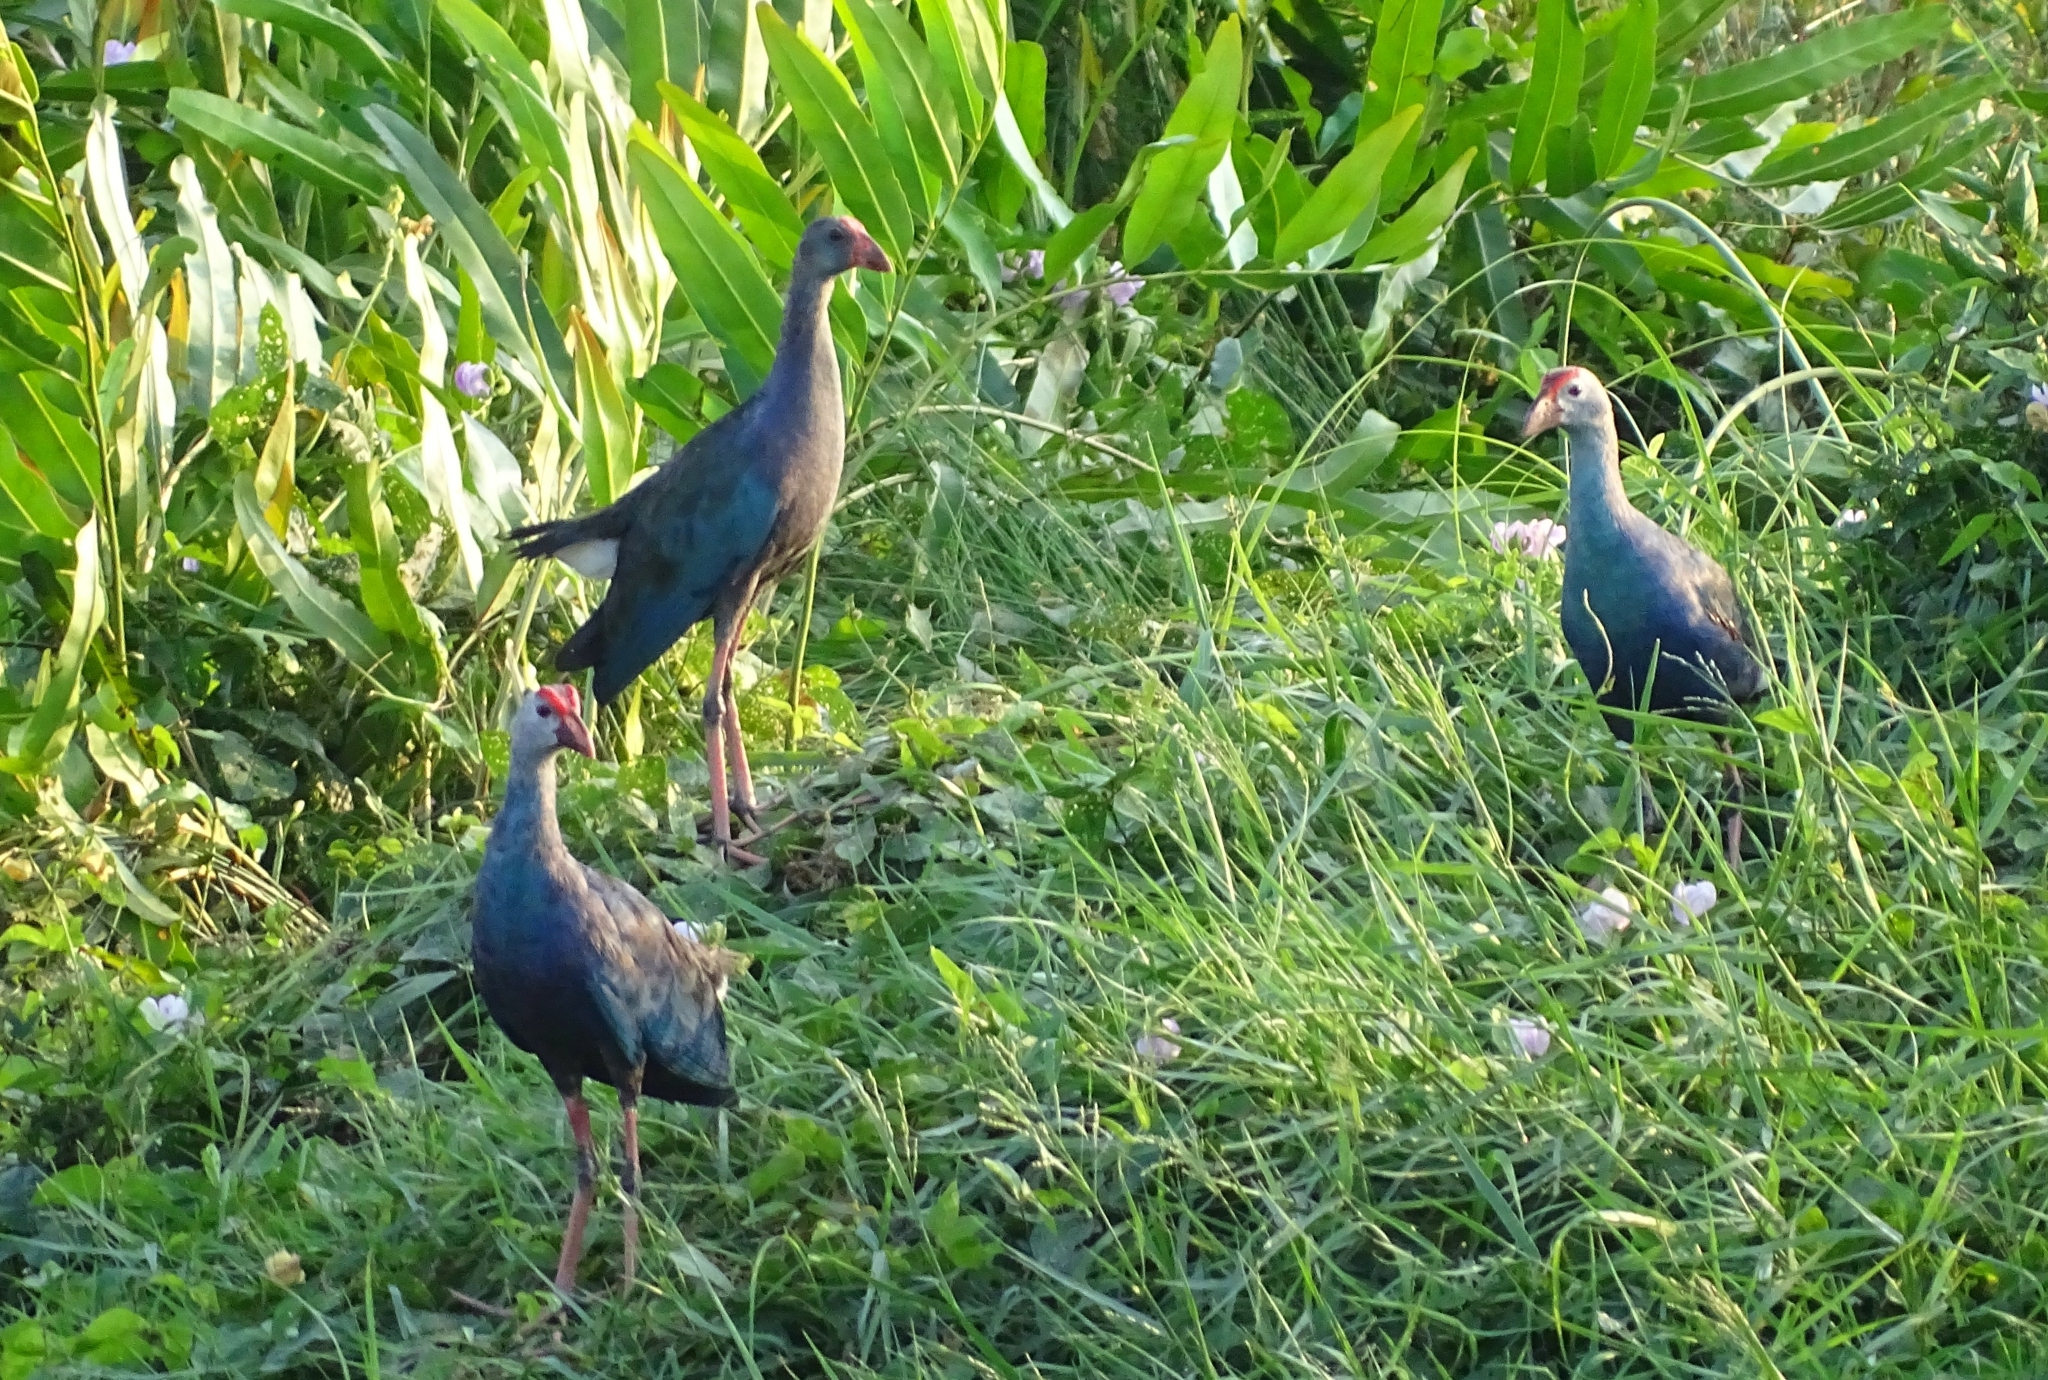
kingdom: Animalia
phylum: Chordata
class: Aves
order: Gruiformes
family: Rallidae
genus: Porphyrio
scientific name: Porphyrio porphyrio
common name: Purple swamphen
